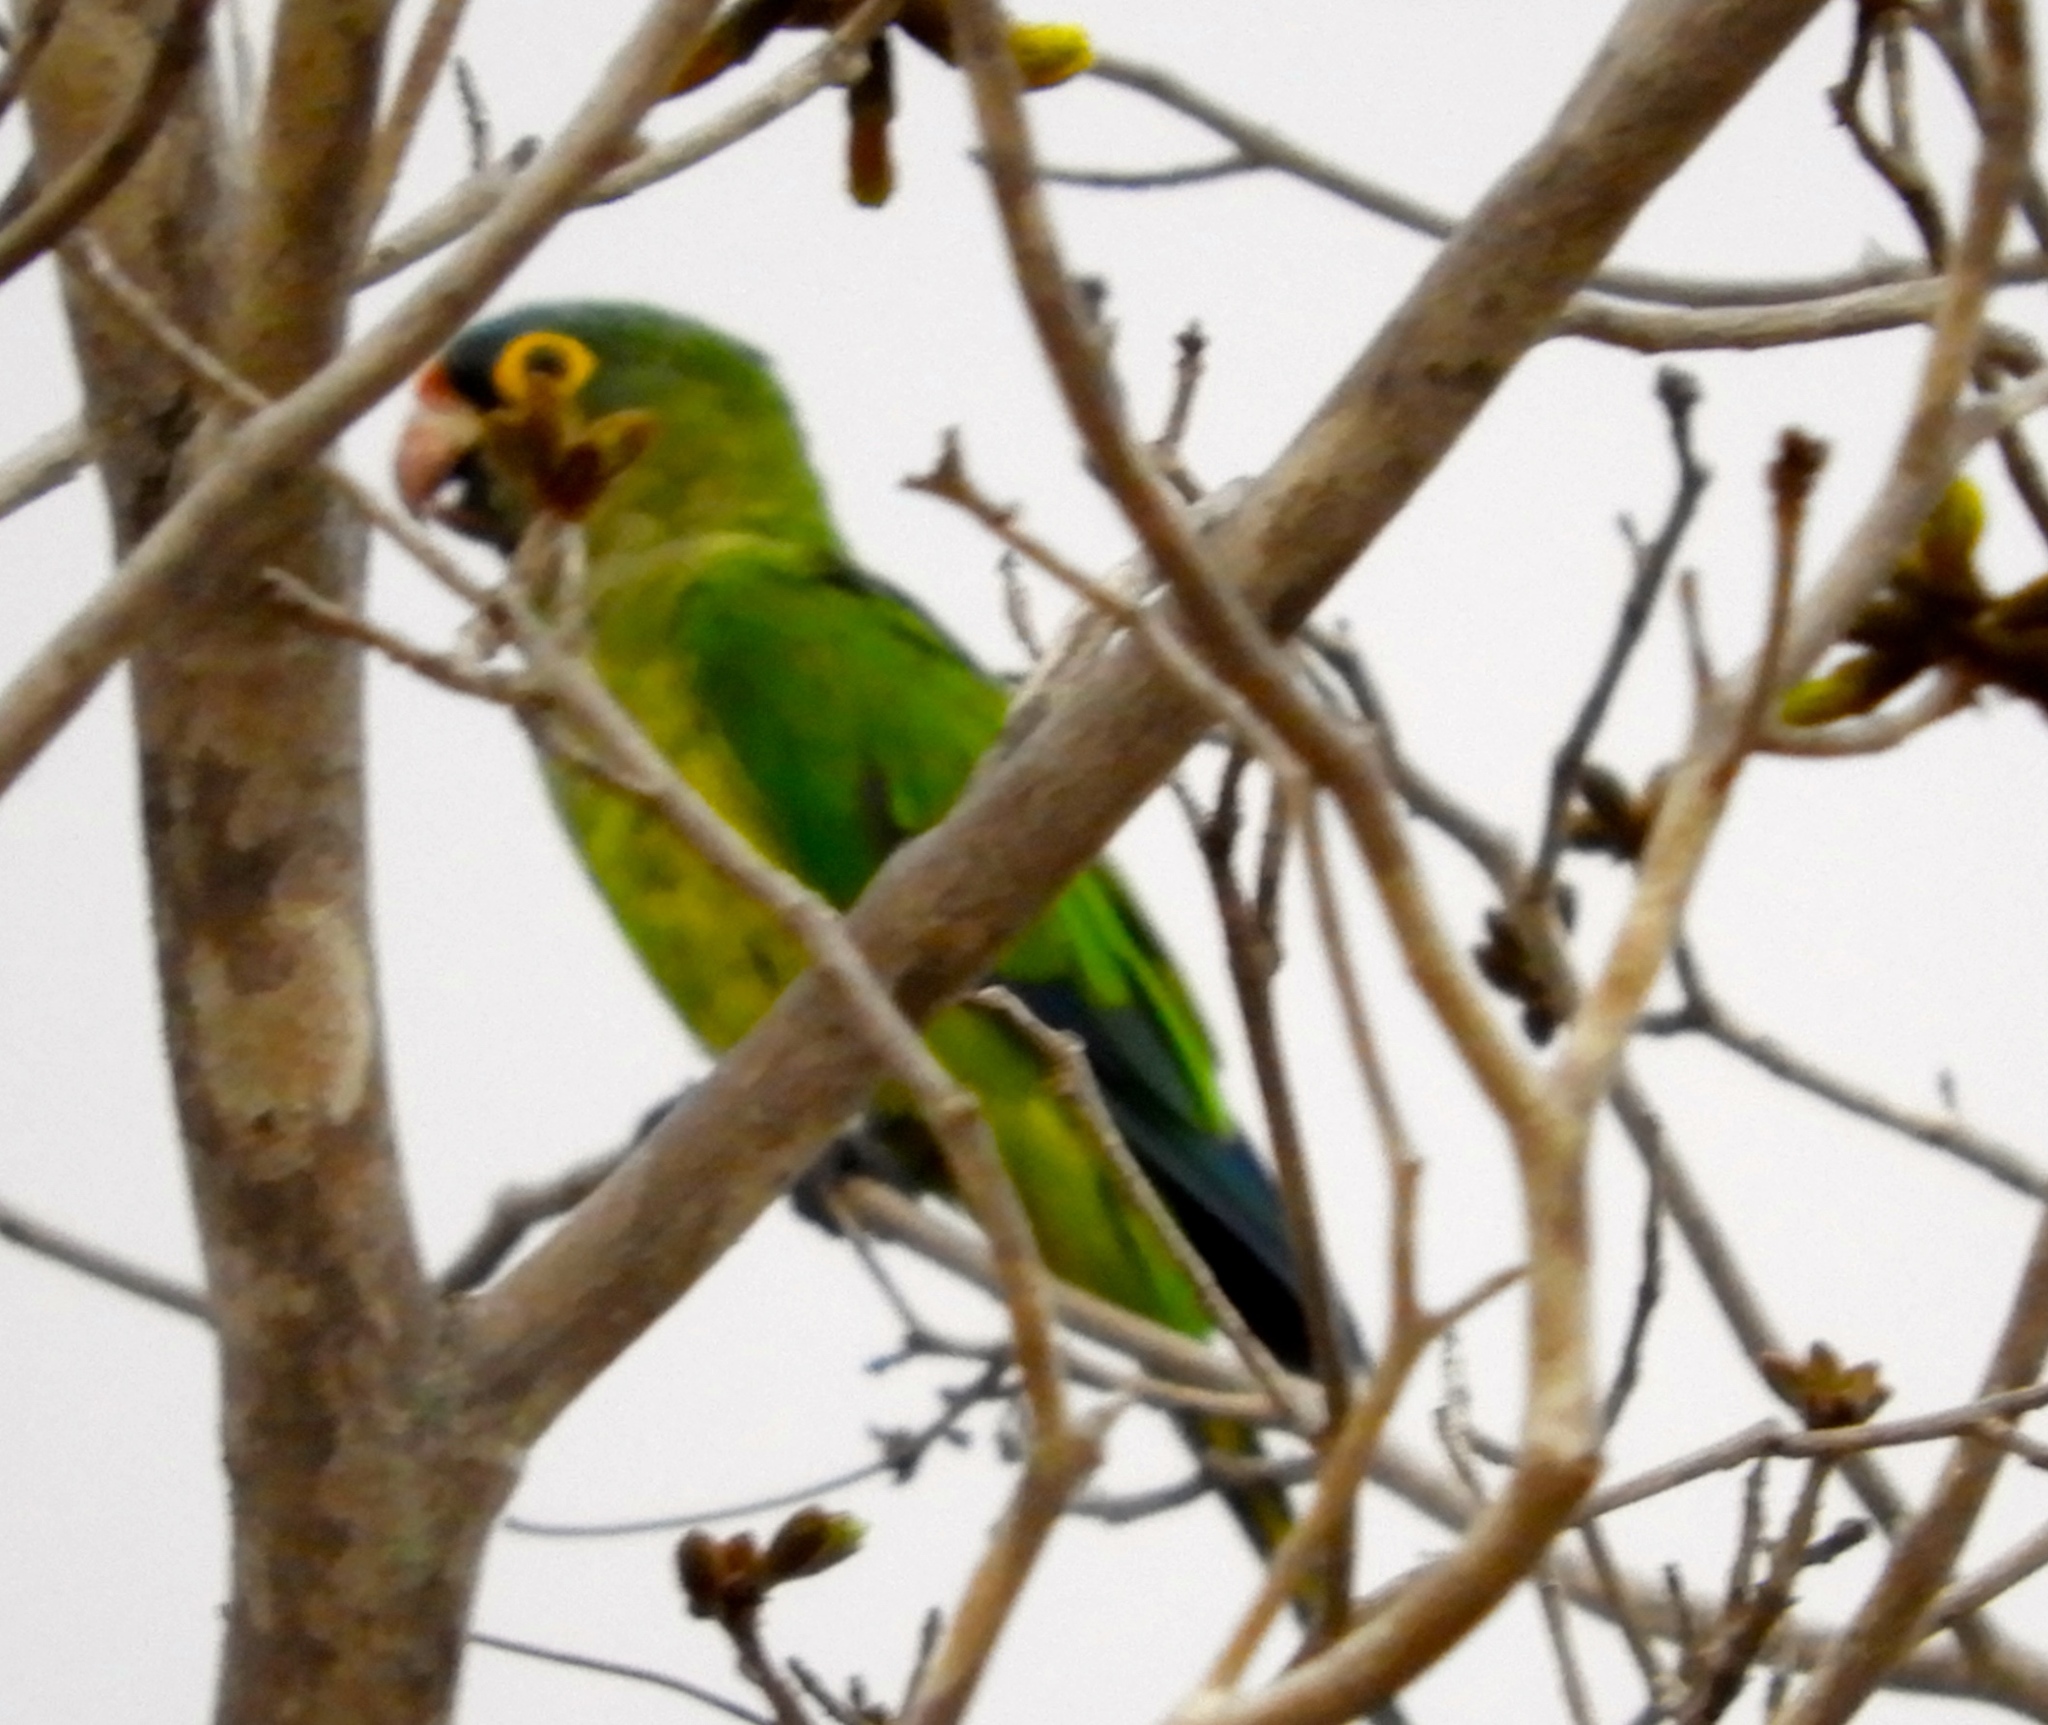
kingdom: Animalia
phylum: Chordata
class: Aves
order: Psittaciformes
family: Psittacidae
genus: Aratinga
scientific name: Aratinga canicularis
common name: Orange-fronted parakeet
